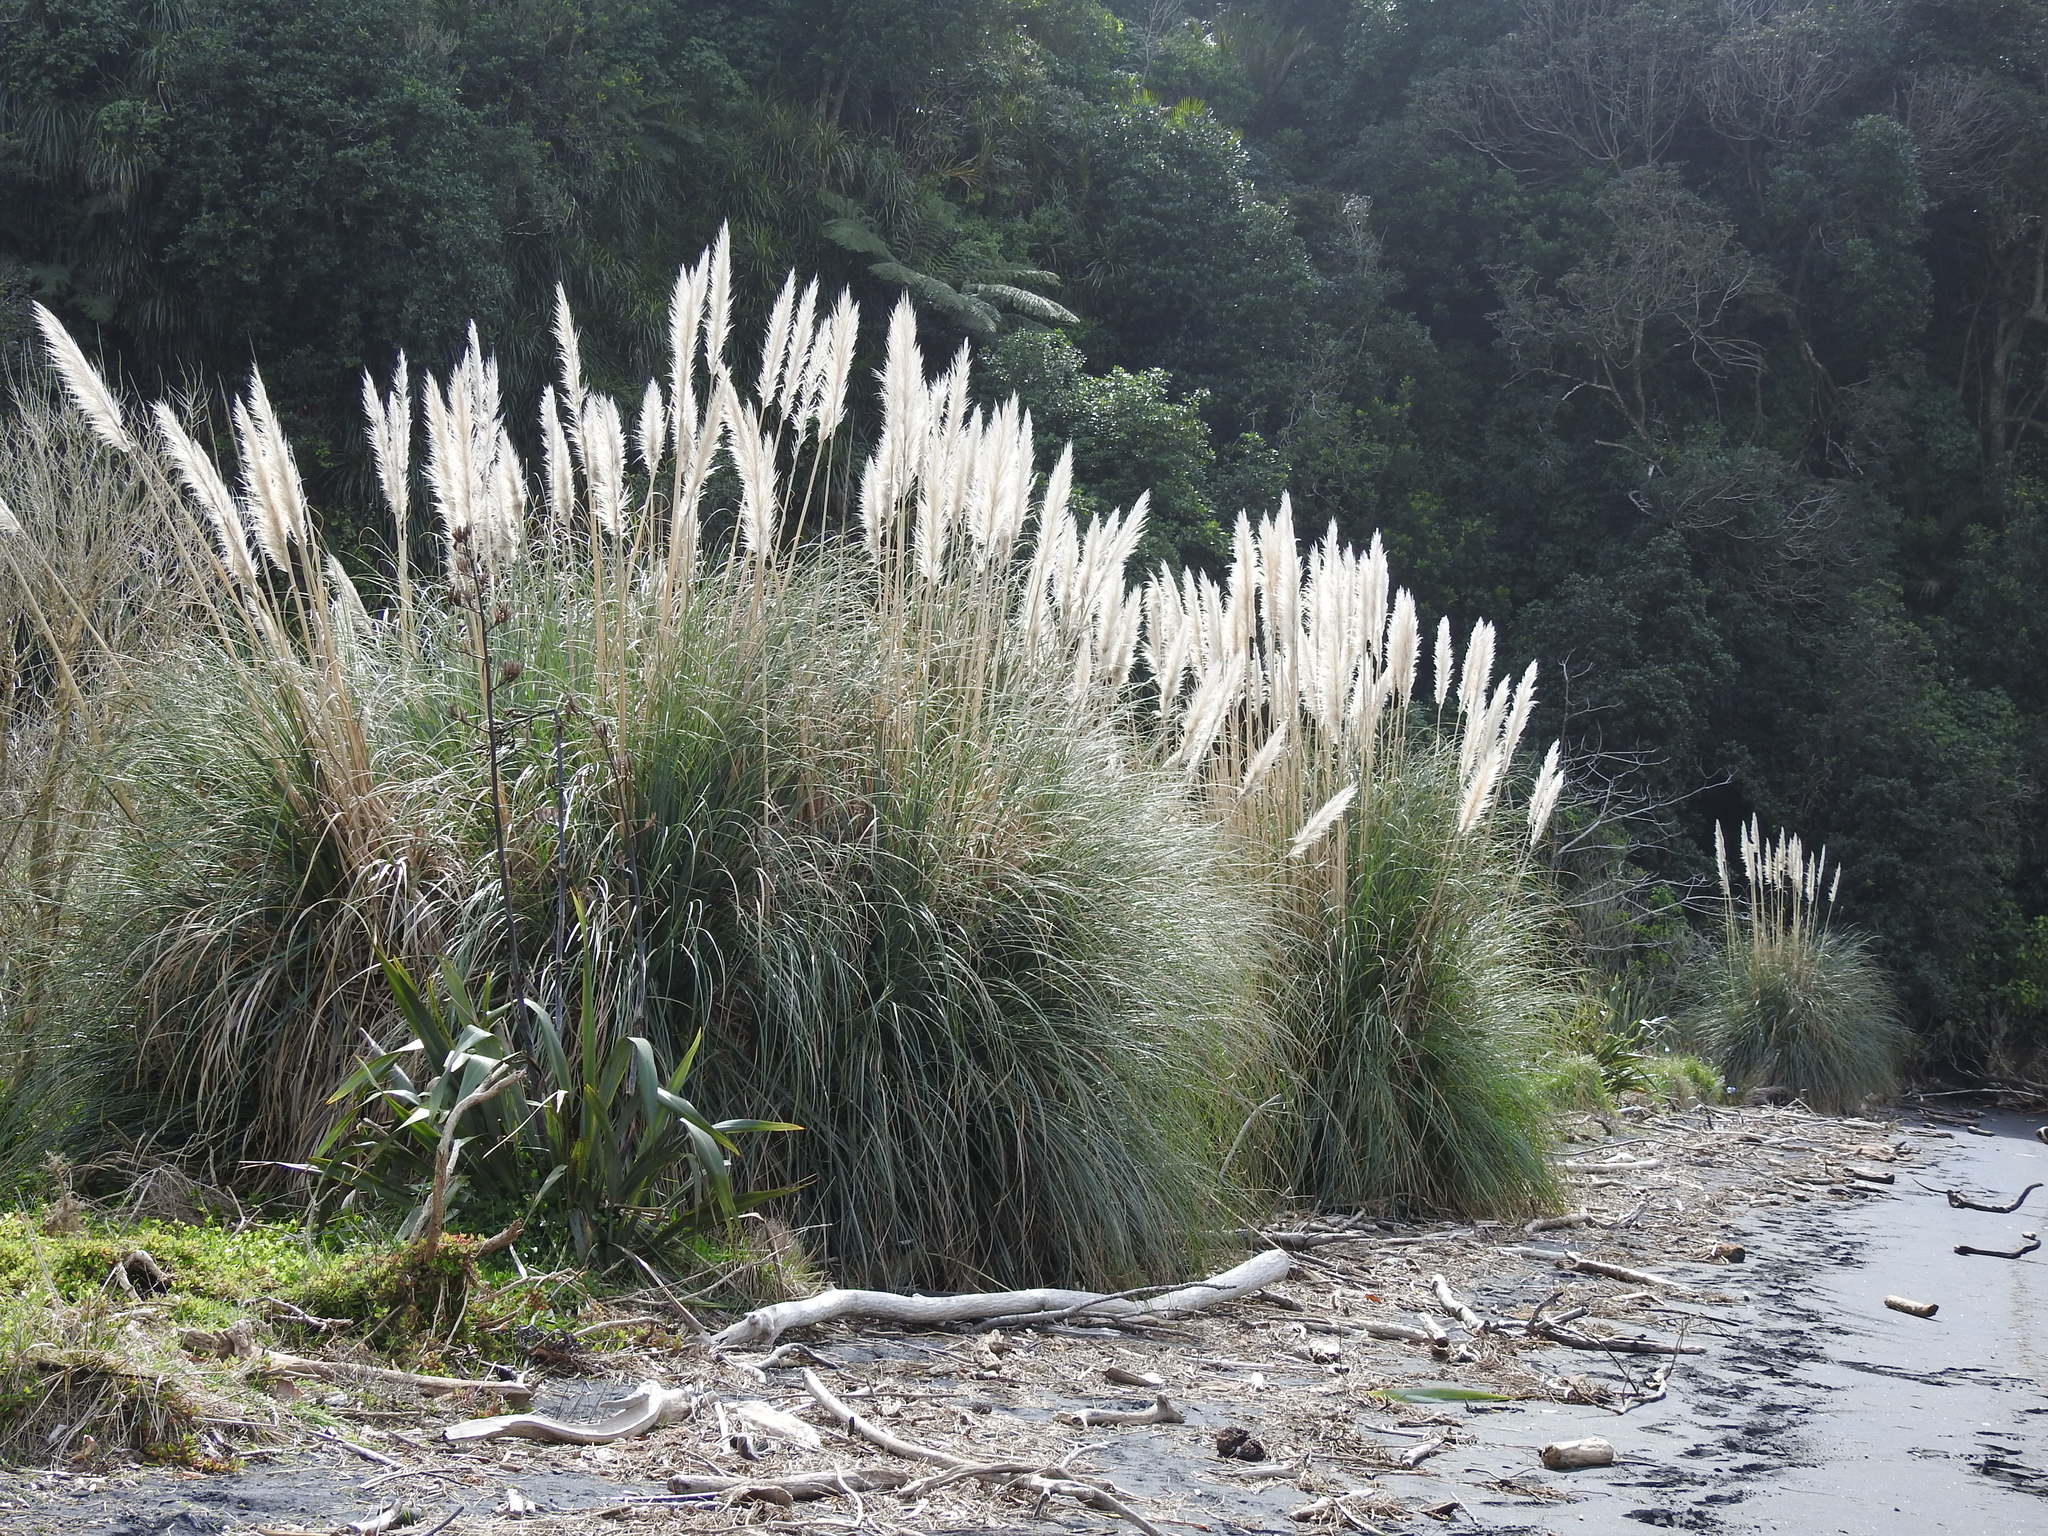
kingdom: Plantae
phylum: Tracheophyta
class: Liliopsida
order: Poales
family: Poaceae
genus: Cortaderia
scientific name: Cortaderia selloana
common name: Uruguayan pampas grass
